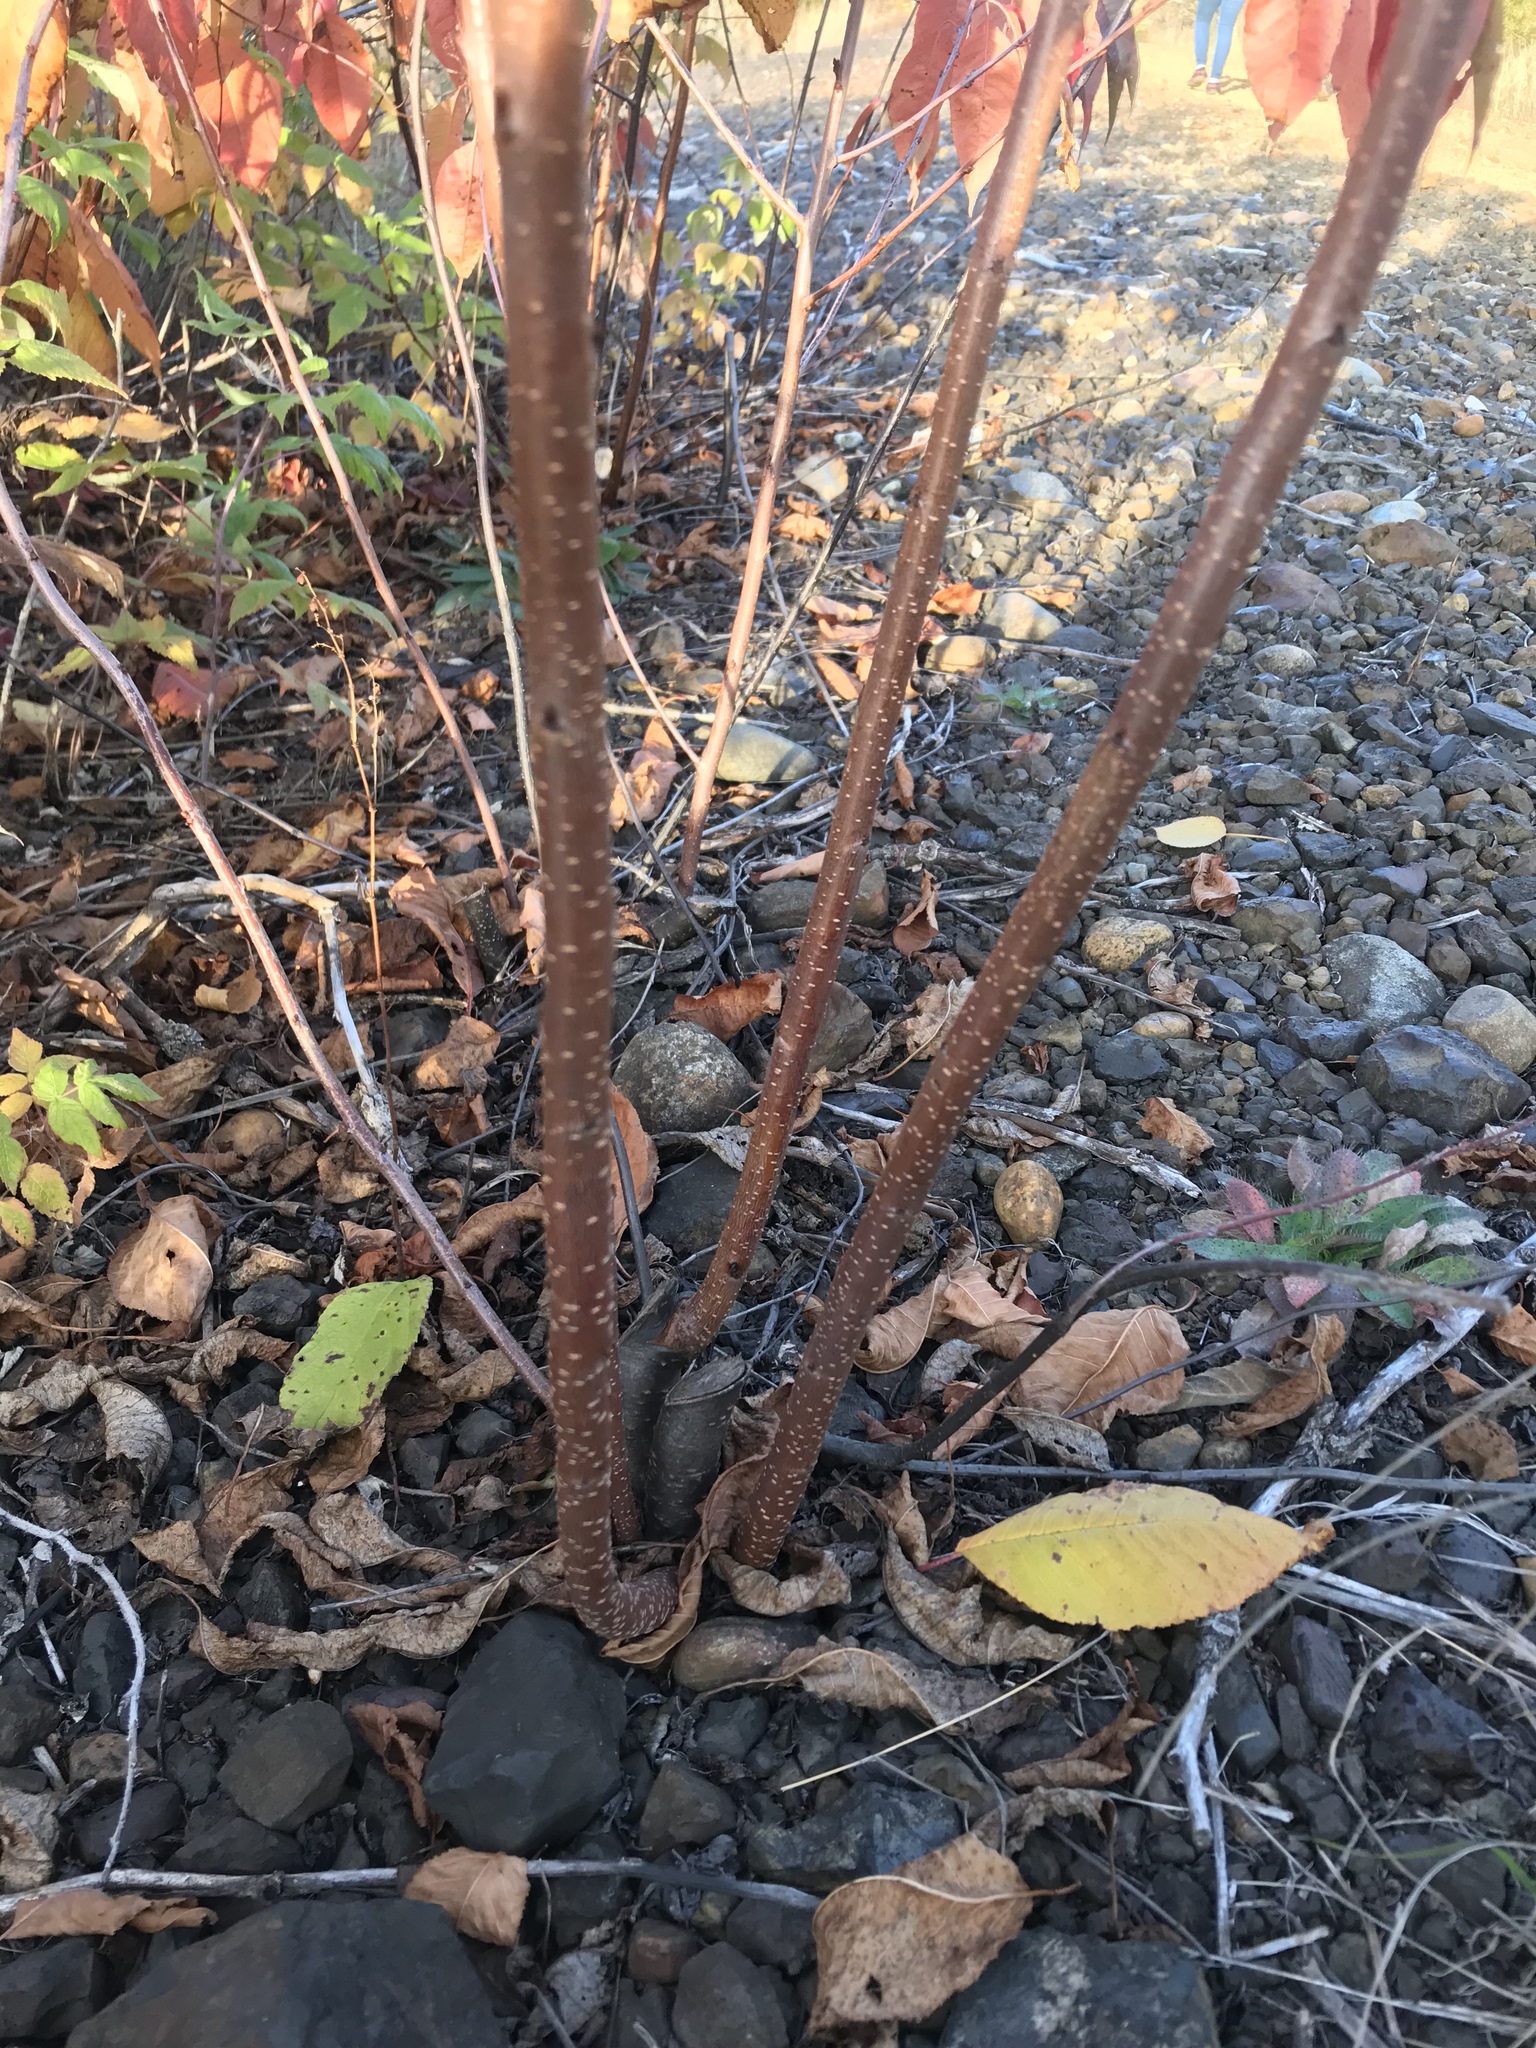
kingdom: Plantae
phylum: Tracheophyta
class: Magnoliopsida
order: Dipsacales
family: Viburnaceae
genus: Viburnum
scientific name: Viburnum lentago
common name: Black haw
